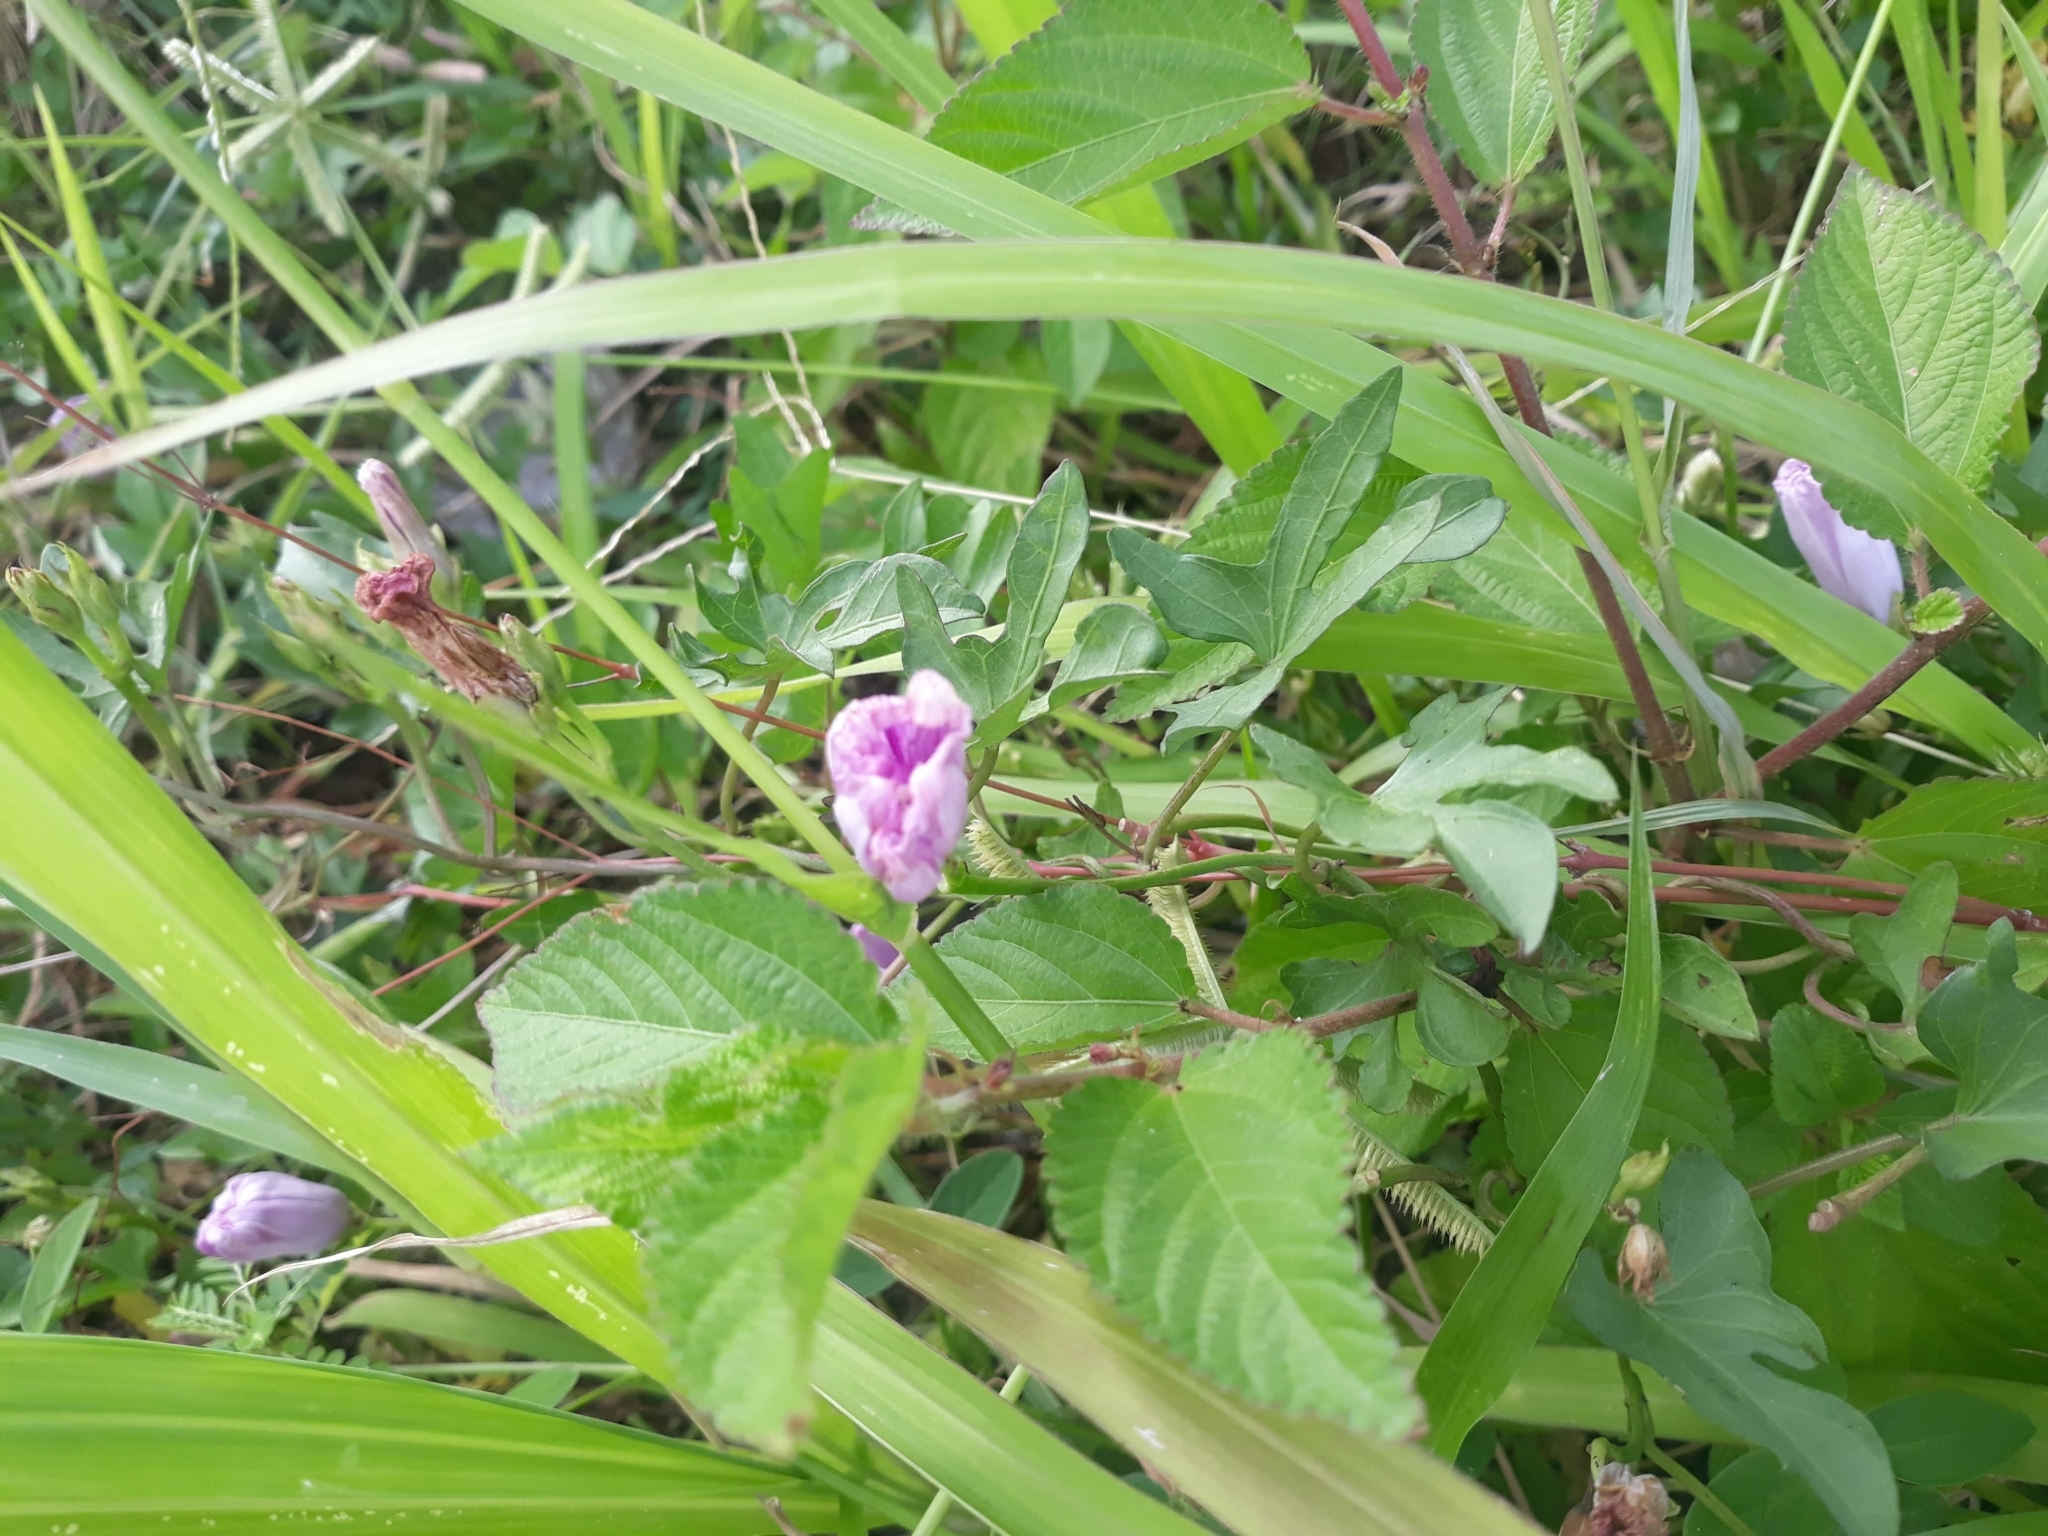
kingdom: Plantae
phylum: Tracheophyta
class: Magnoliopsida
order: Solanales
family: Convolvulaceae
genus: Ipomoea
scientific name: Ipomoea trifida
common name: Cotton morningglory
